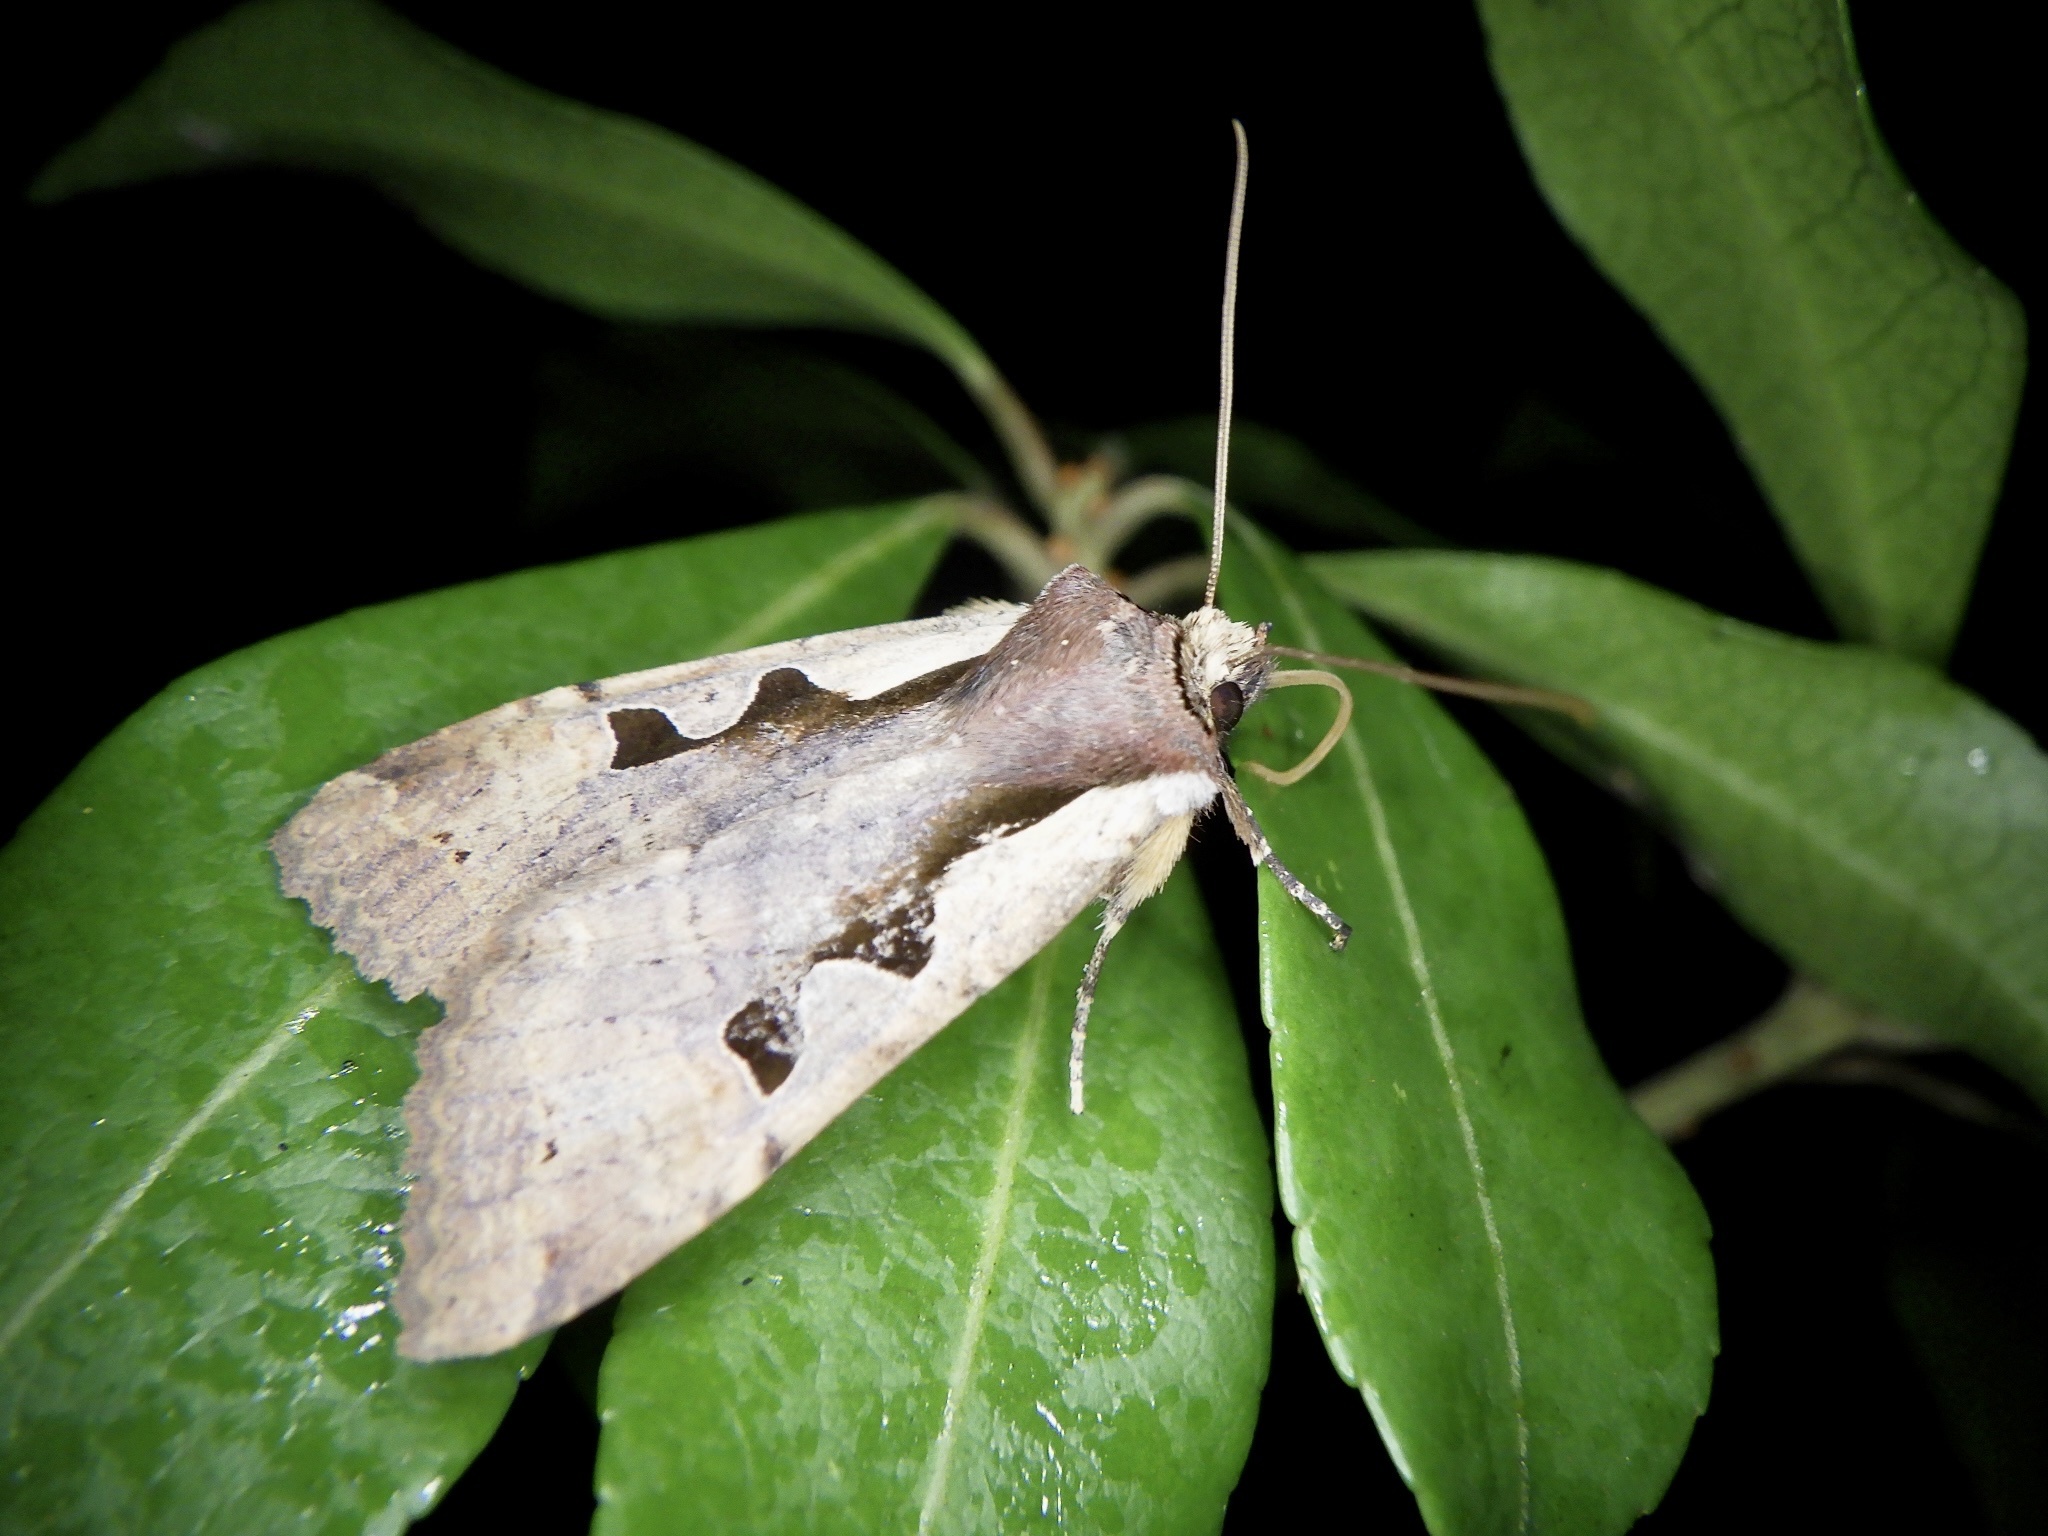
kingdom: Animalia
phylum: Arthropoda
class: Insecta
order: Lepidoptera
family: Noctuidae
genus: Sugitania
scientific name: Sugitania
